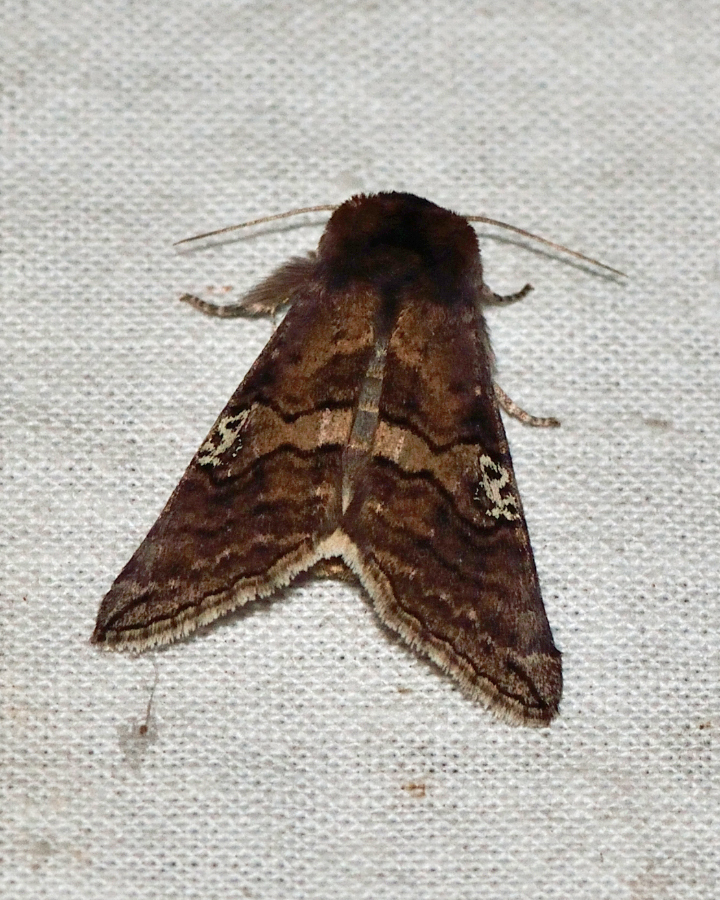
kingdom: Animalia
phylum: Arthropoda
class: Insecta
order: Lepidoptera
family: Drepanidae
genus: Tethea
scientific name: Tethea ocularis
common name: Figure of eighty
